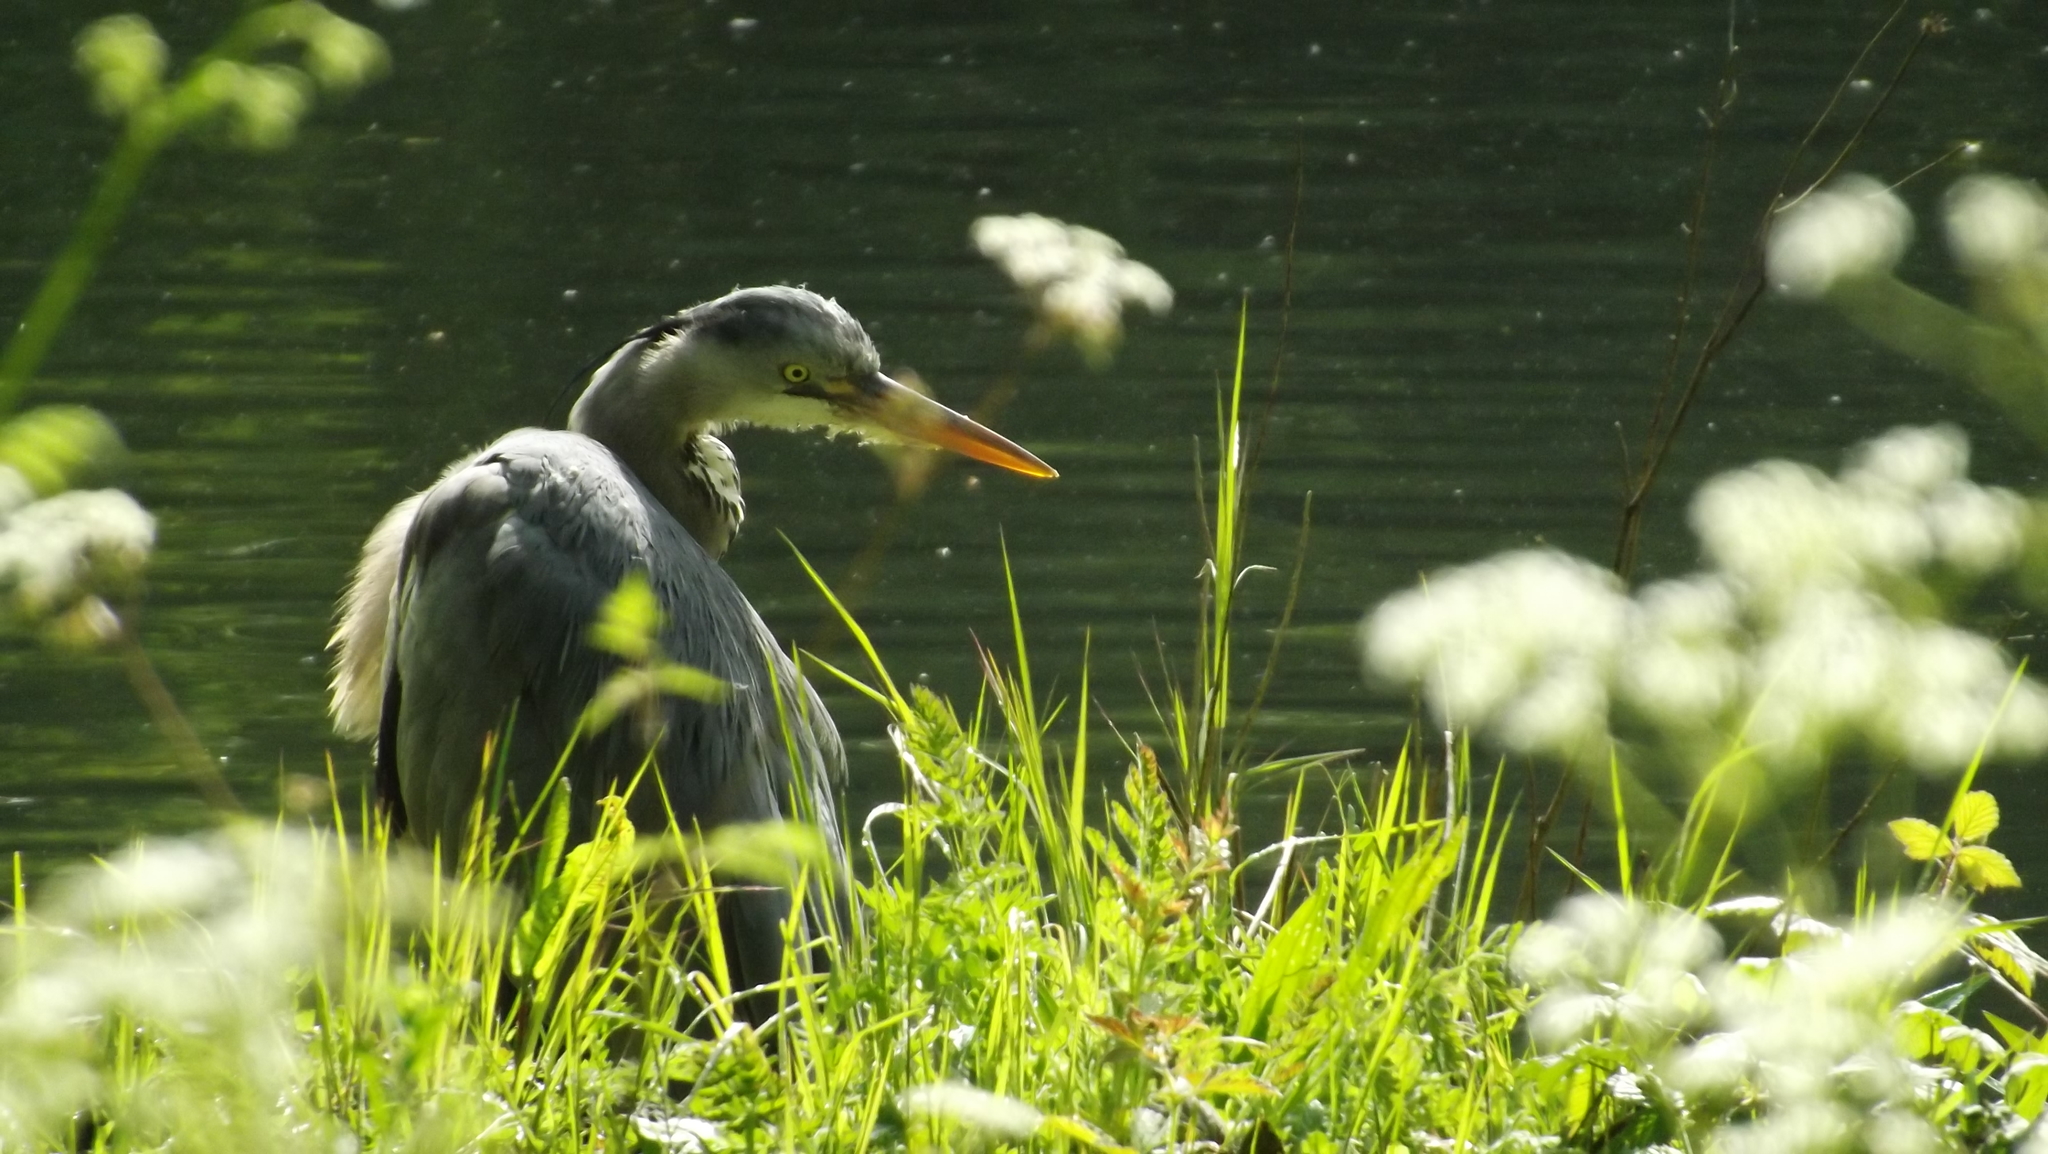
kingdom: Animalia
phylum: Chordata
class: Aves
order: Pelecaniformes
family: Ardeidae
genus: Ardea
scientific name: Ardea cinerea
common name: Grey heron
